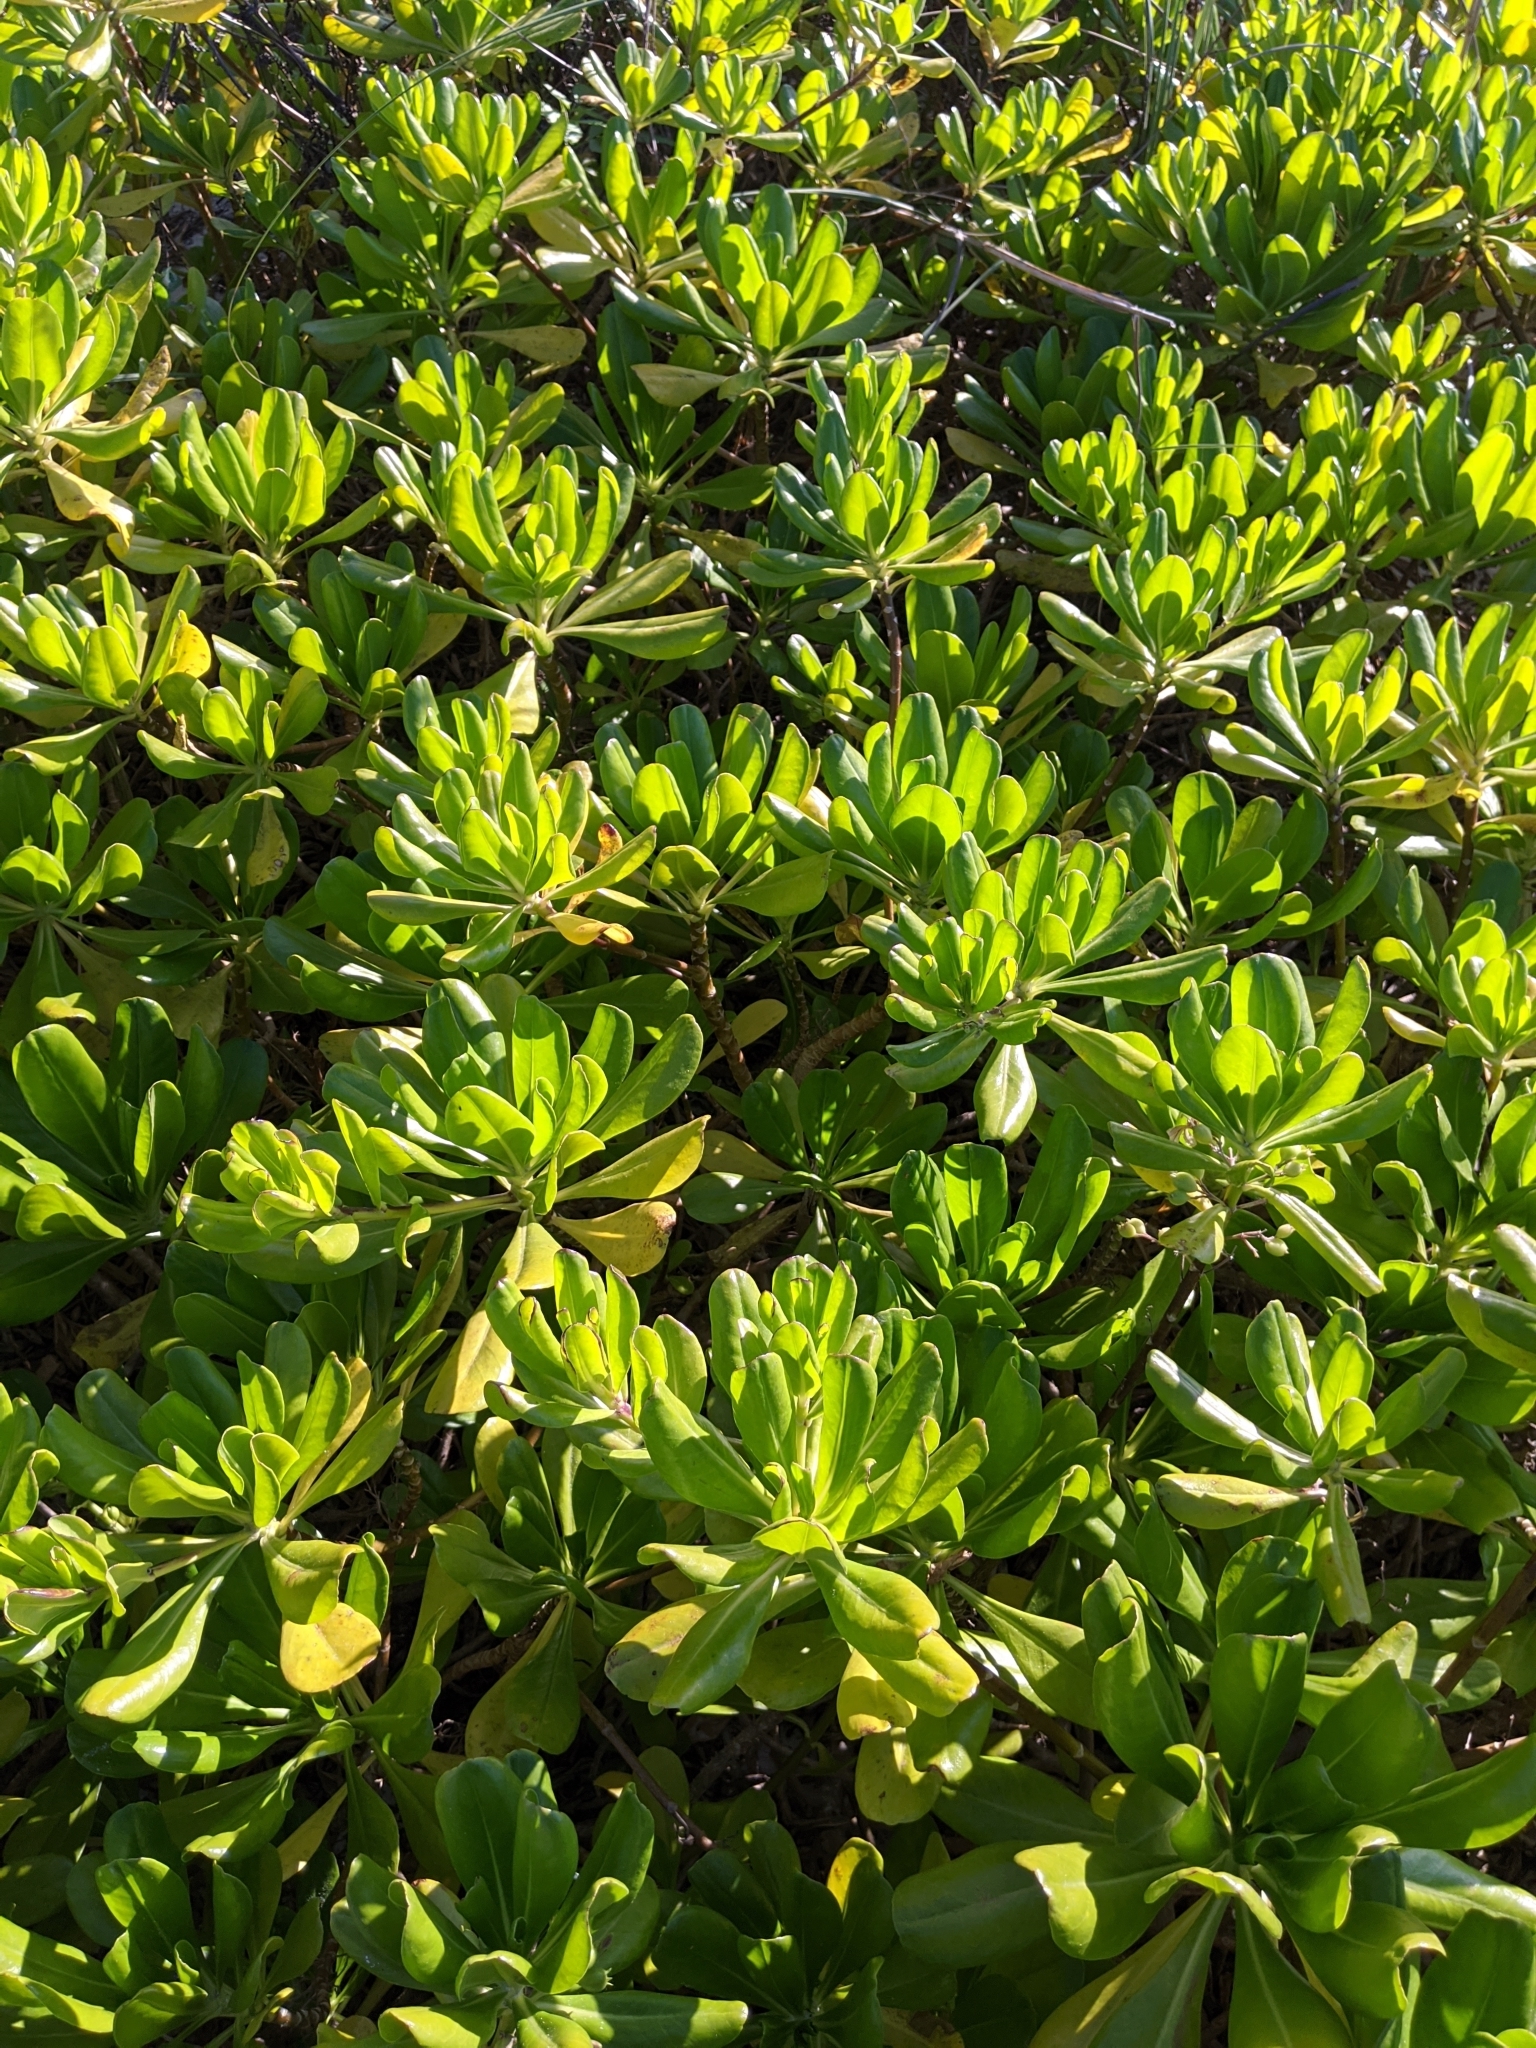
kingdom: Plantae
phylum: Tracheophyta
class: Magnoliopsida
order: Asterales
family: Goodeniaceae
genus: Scaevola
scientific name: Scaevola taccada
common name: Sea lettucetree
